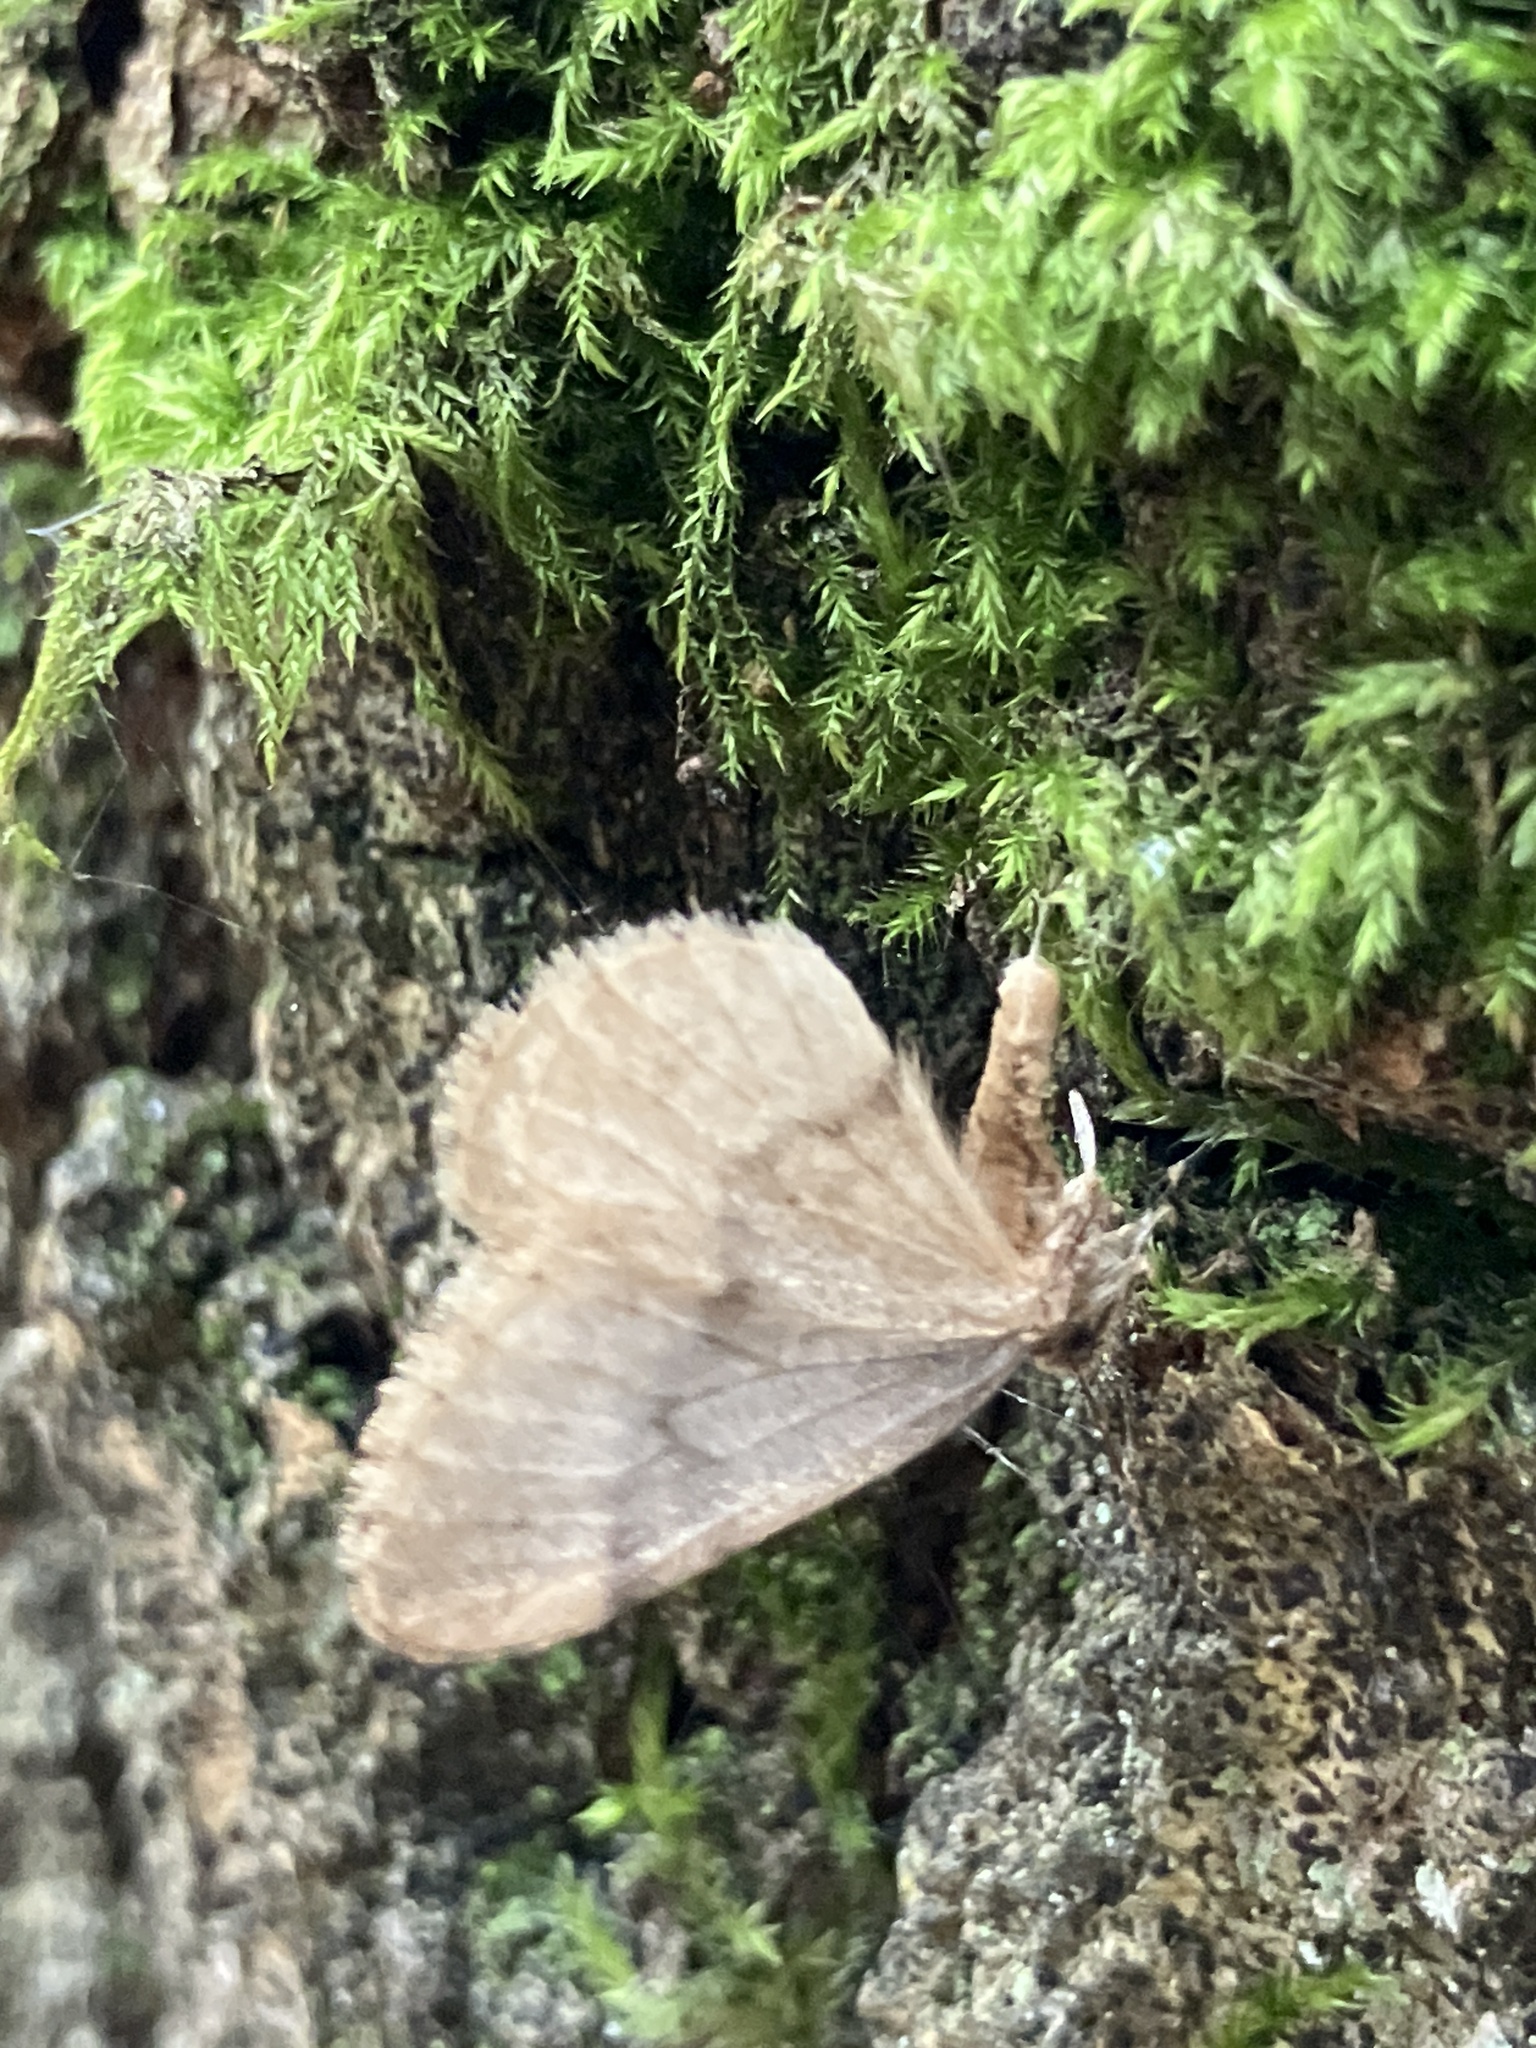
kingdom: Animalia
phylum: Arthropoda
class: Insecta
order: Lepidoptera
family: Geometridae
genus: Operophtera
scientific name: Operophtera brumata
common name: Winter moth
